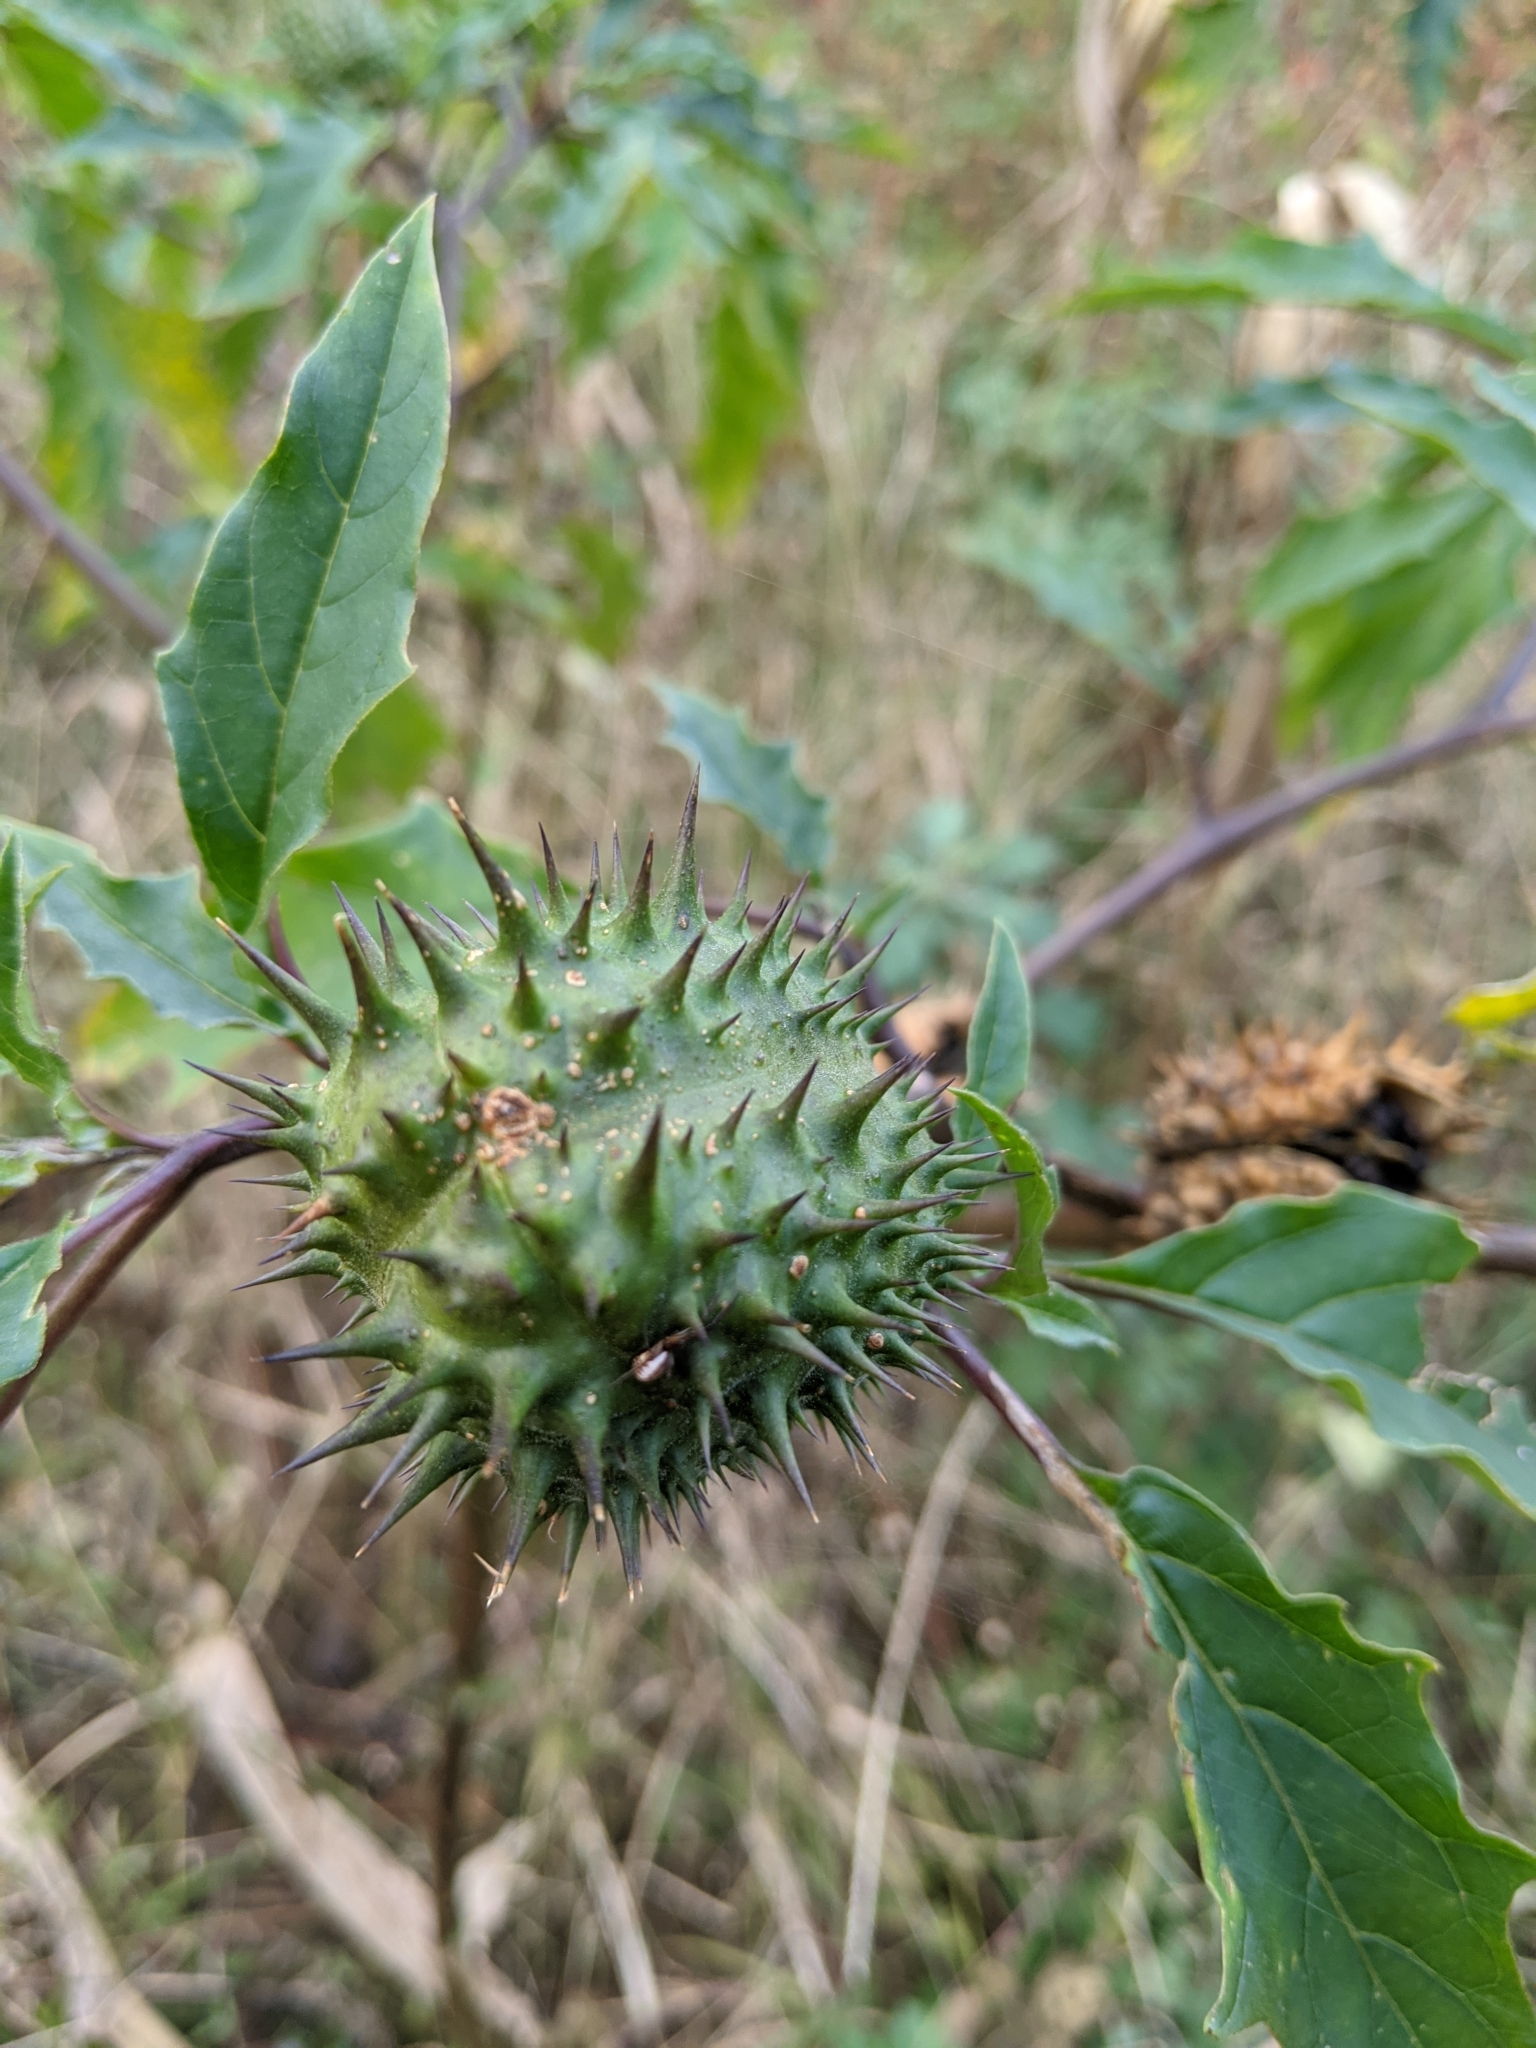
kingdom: Plantae
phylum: Tracheophyta
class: Magnoliopsida
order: Solanales
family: Solanaceae
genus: Datura
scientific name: Datura stramonium
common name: Thorn-apple
